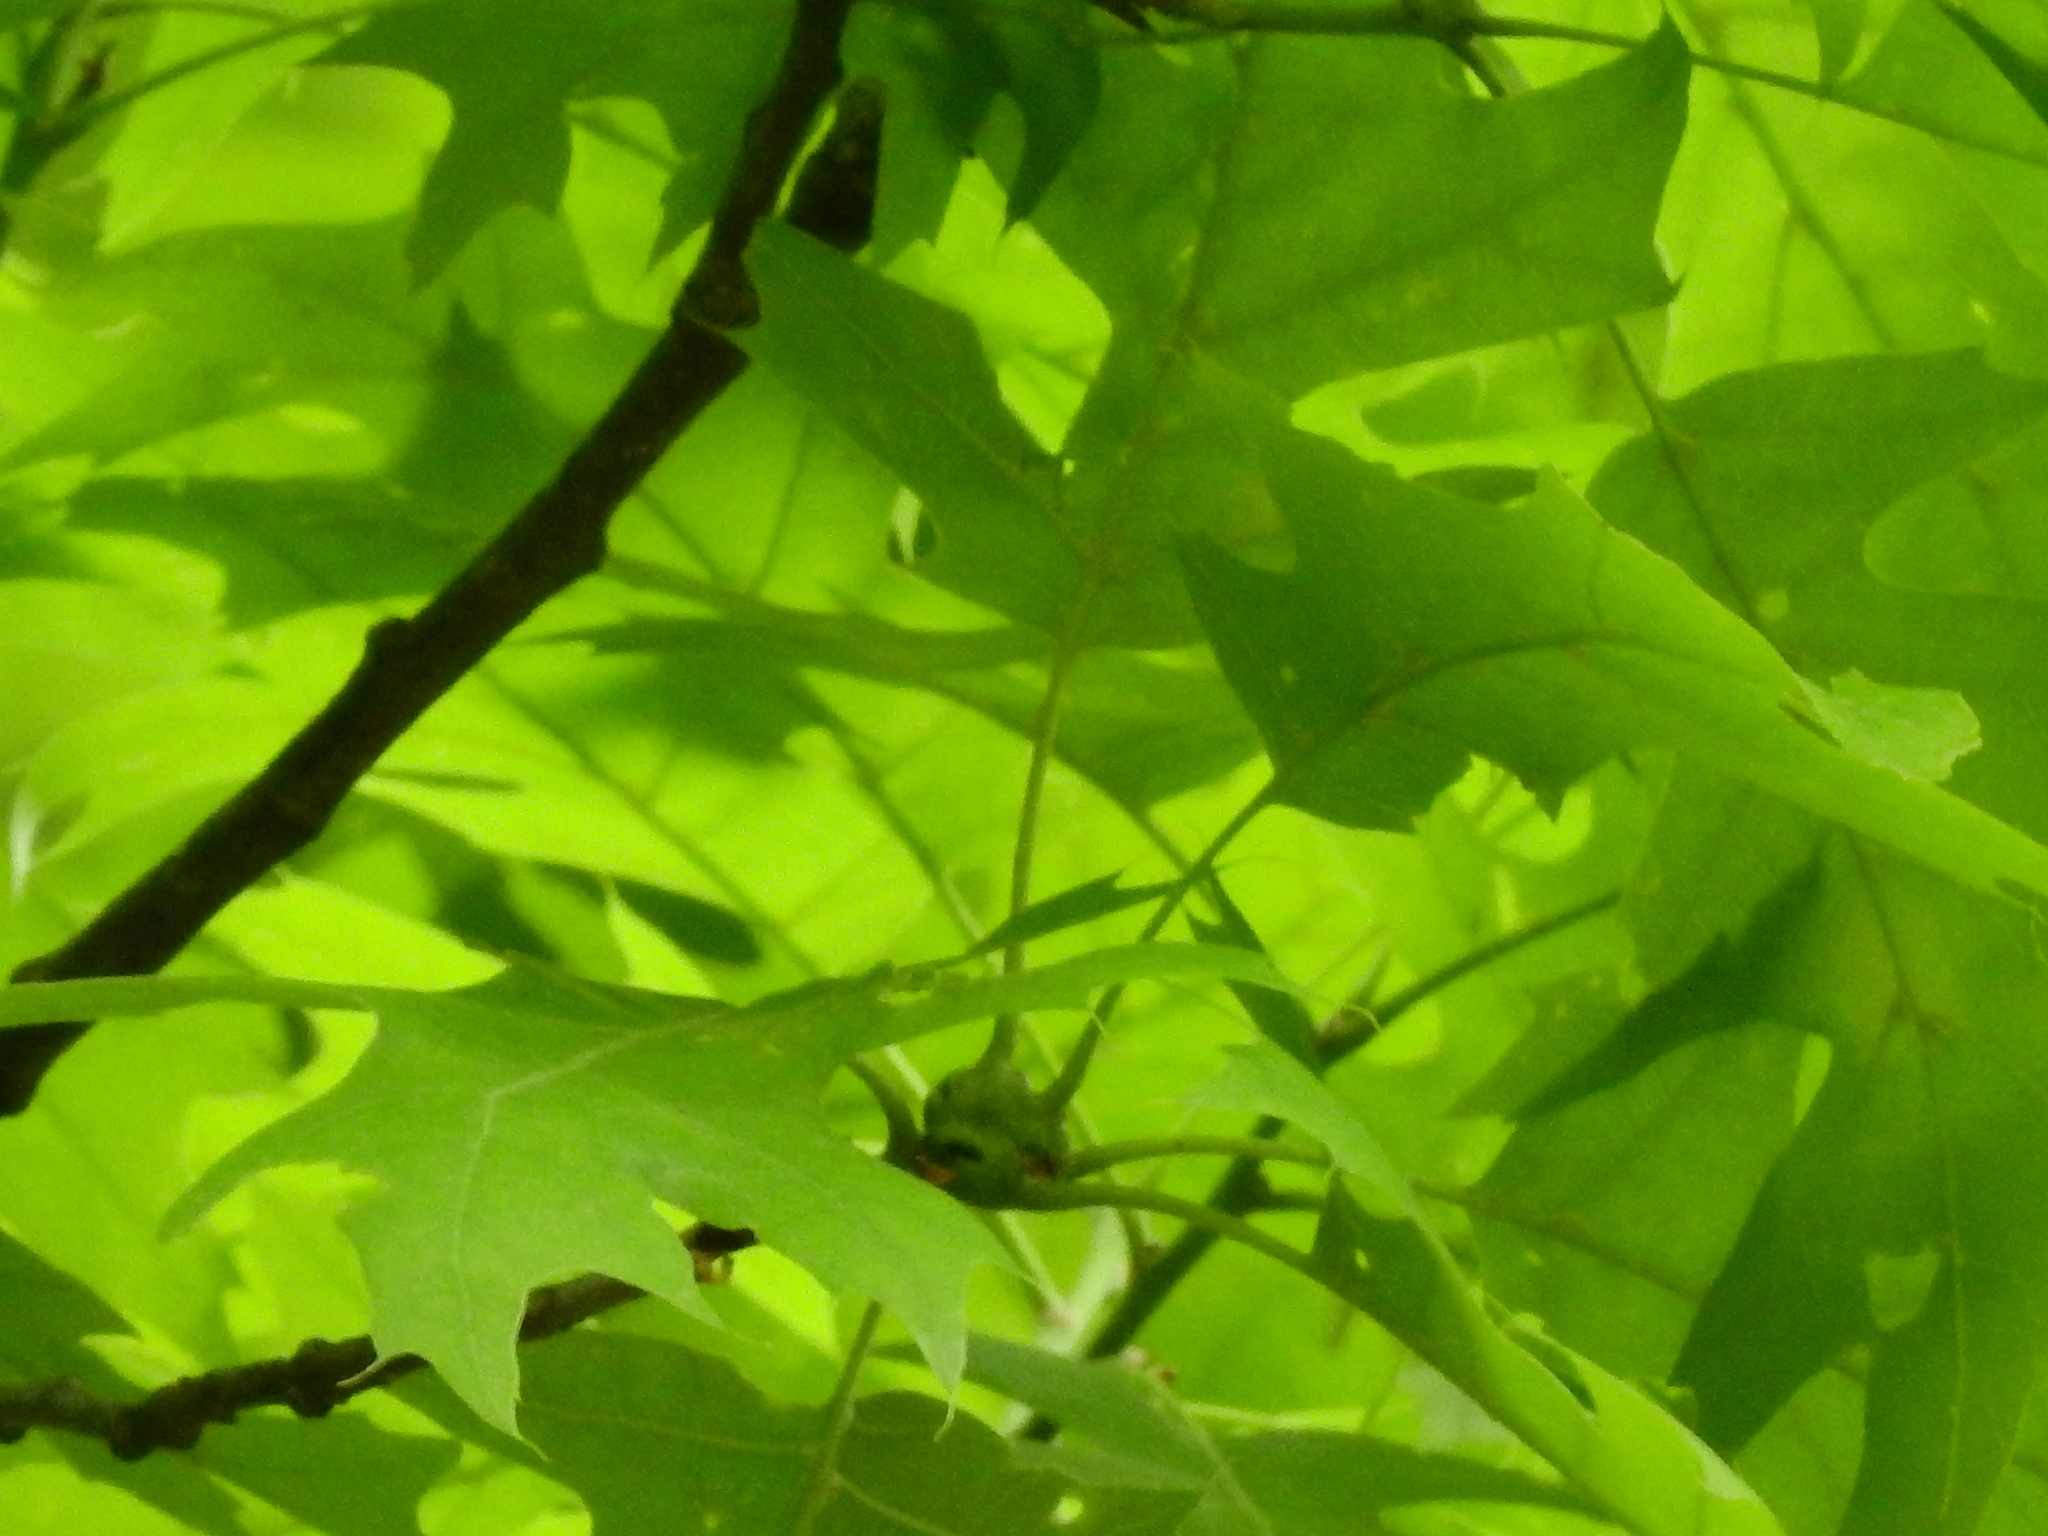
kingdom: Animalia
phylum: Arthropoda
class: Insecta
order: Hymenoptera
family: Cynipidae
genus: Callirhytis
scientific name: Callirhytis
